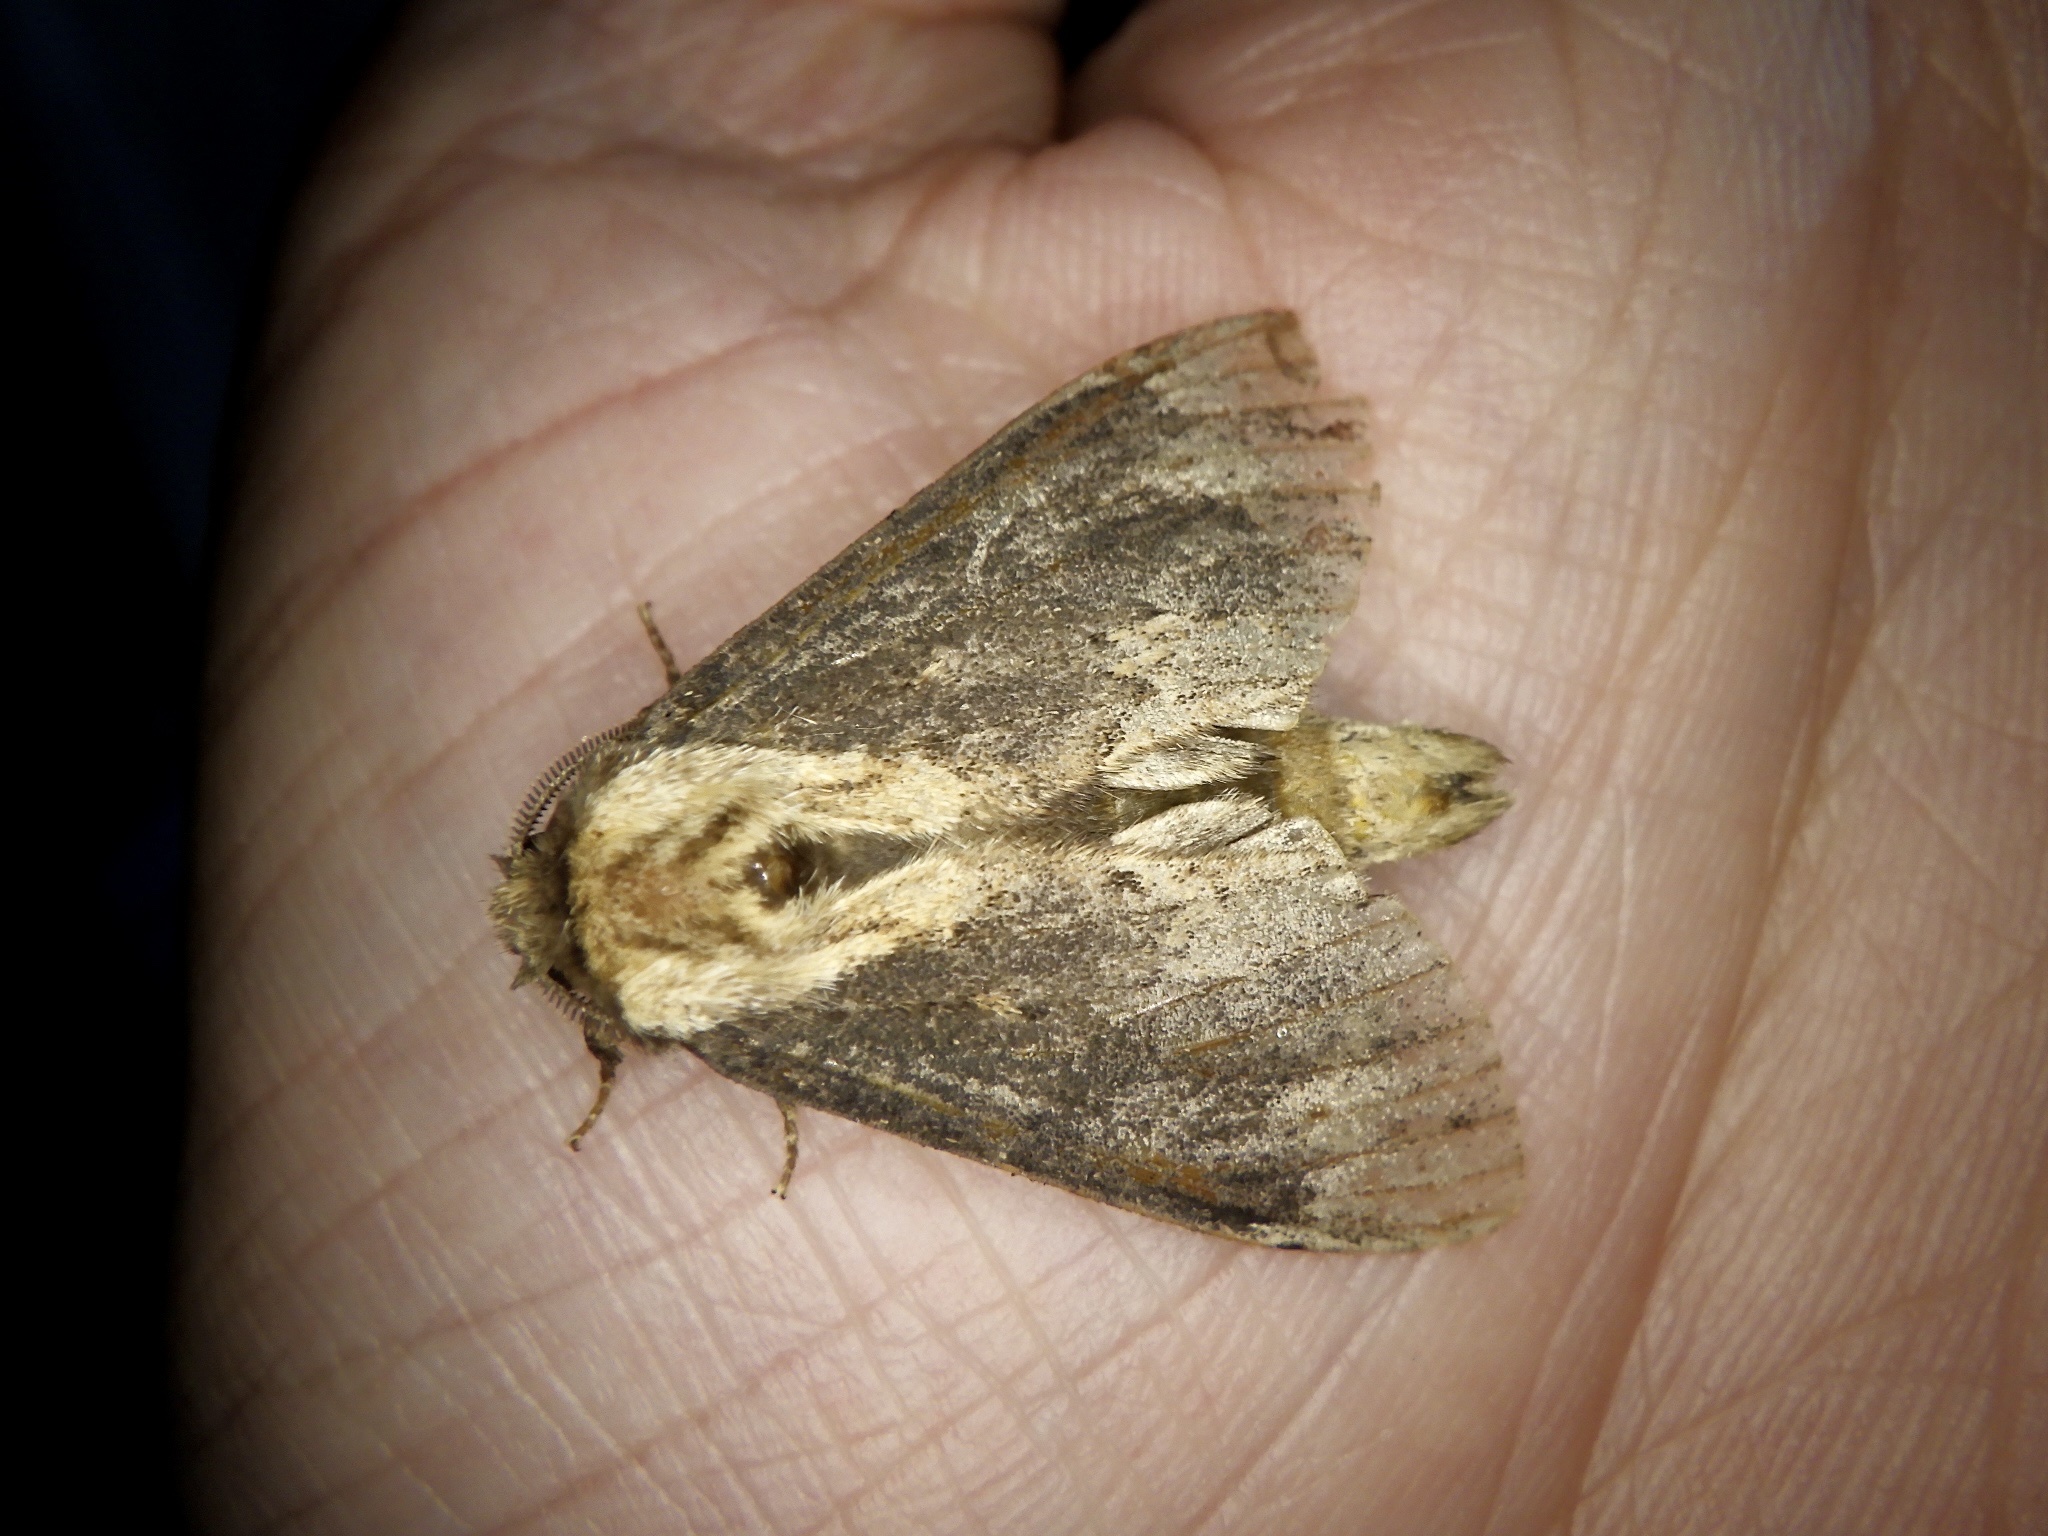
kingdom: Animalia
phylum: Arthropoda
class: Insecta
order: Lepidoptera
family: Notodontidae
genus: Hiradonta
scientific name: Hiradonta takaonis
